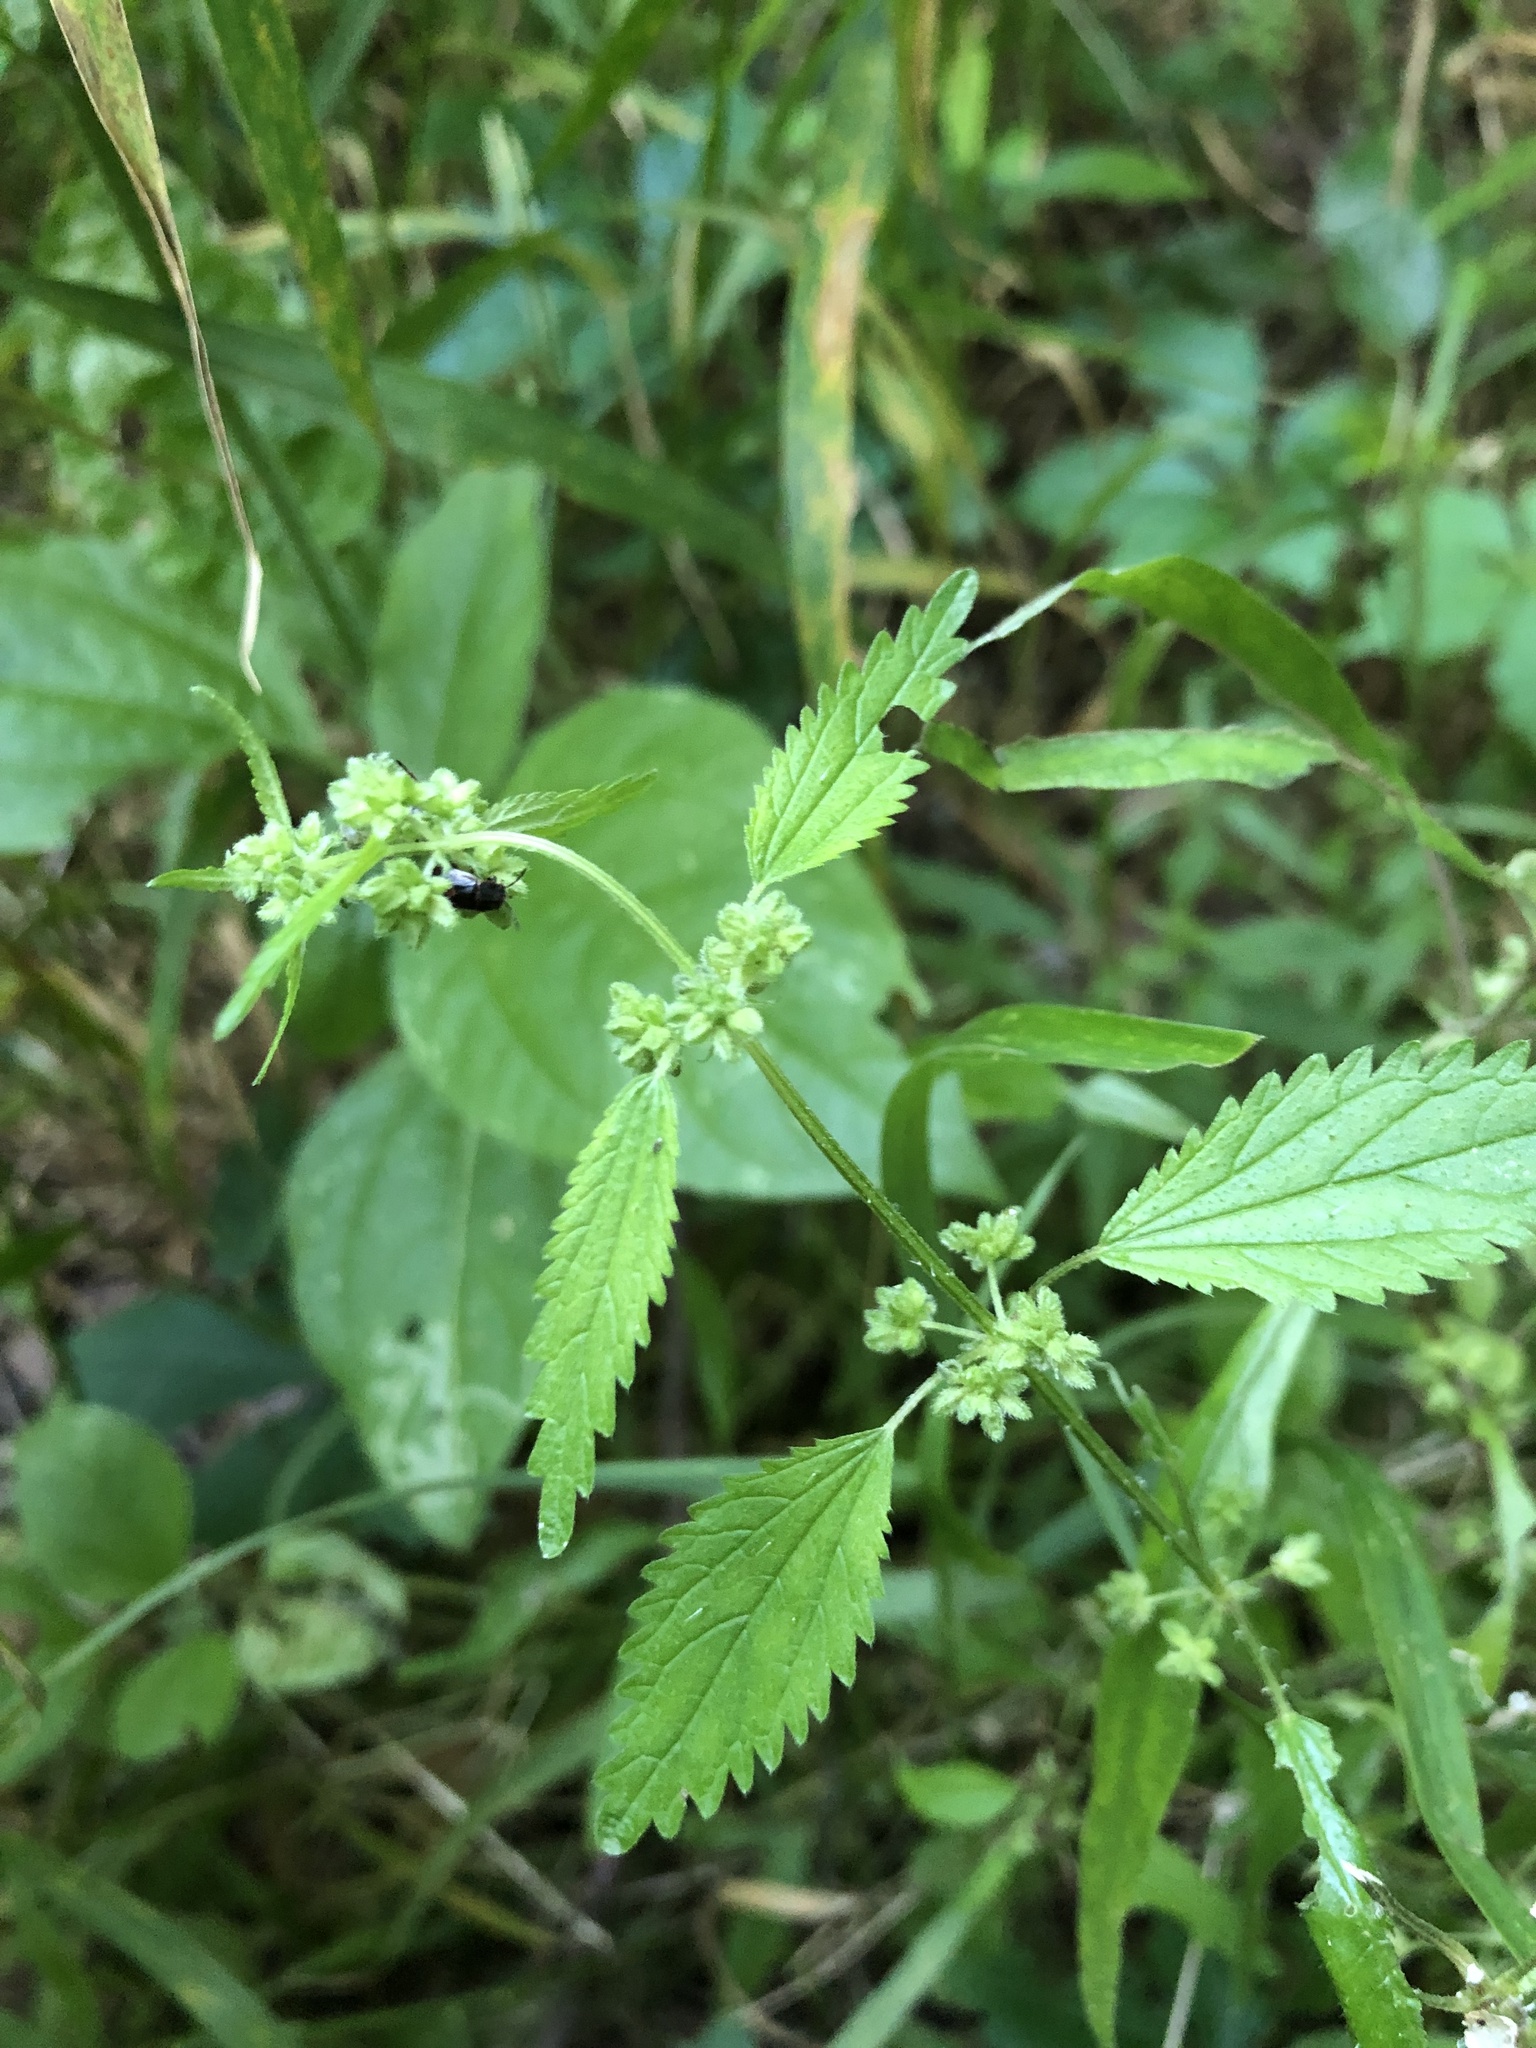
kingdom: Plantae
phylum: Tracheophyta
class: Magnoliopsida
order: Rosales
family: Urticaceae
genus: Urtica
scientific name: Urtica chamaedryoides
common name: Heart-leaf nettle
